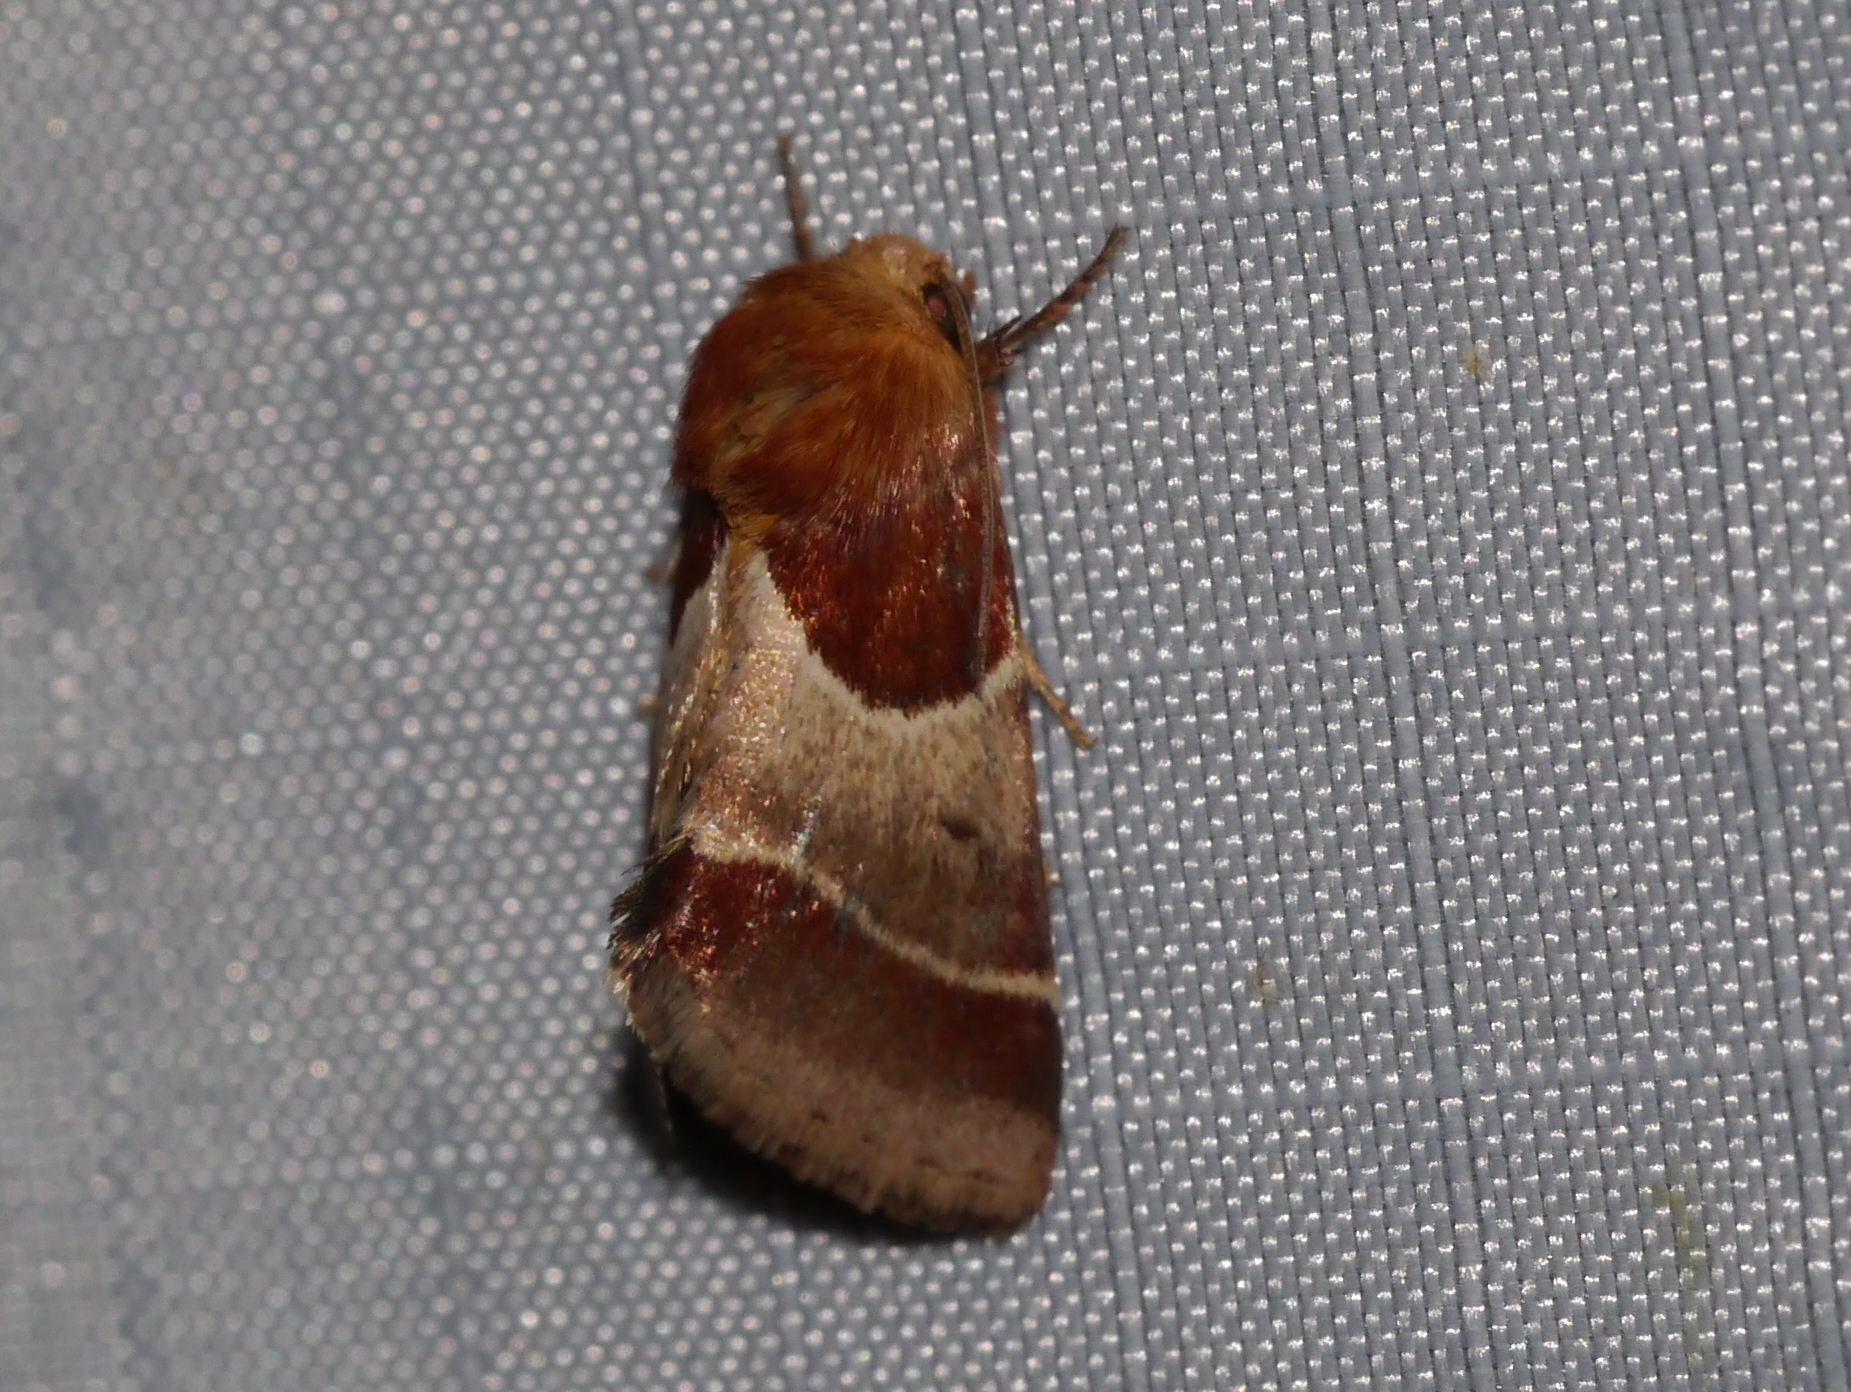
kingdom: Animalia
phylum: Arthropoda
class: Insecta
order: Lepidoptera
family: Noctuidae
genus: Schinia
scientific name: Schinia arcigera
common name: Arcigera flower moth
